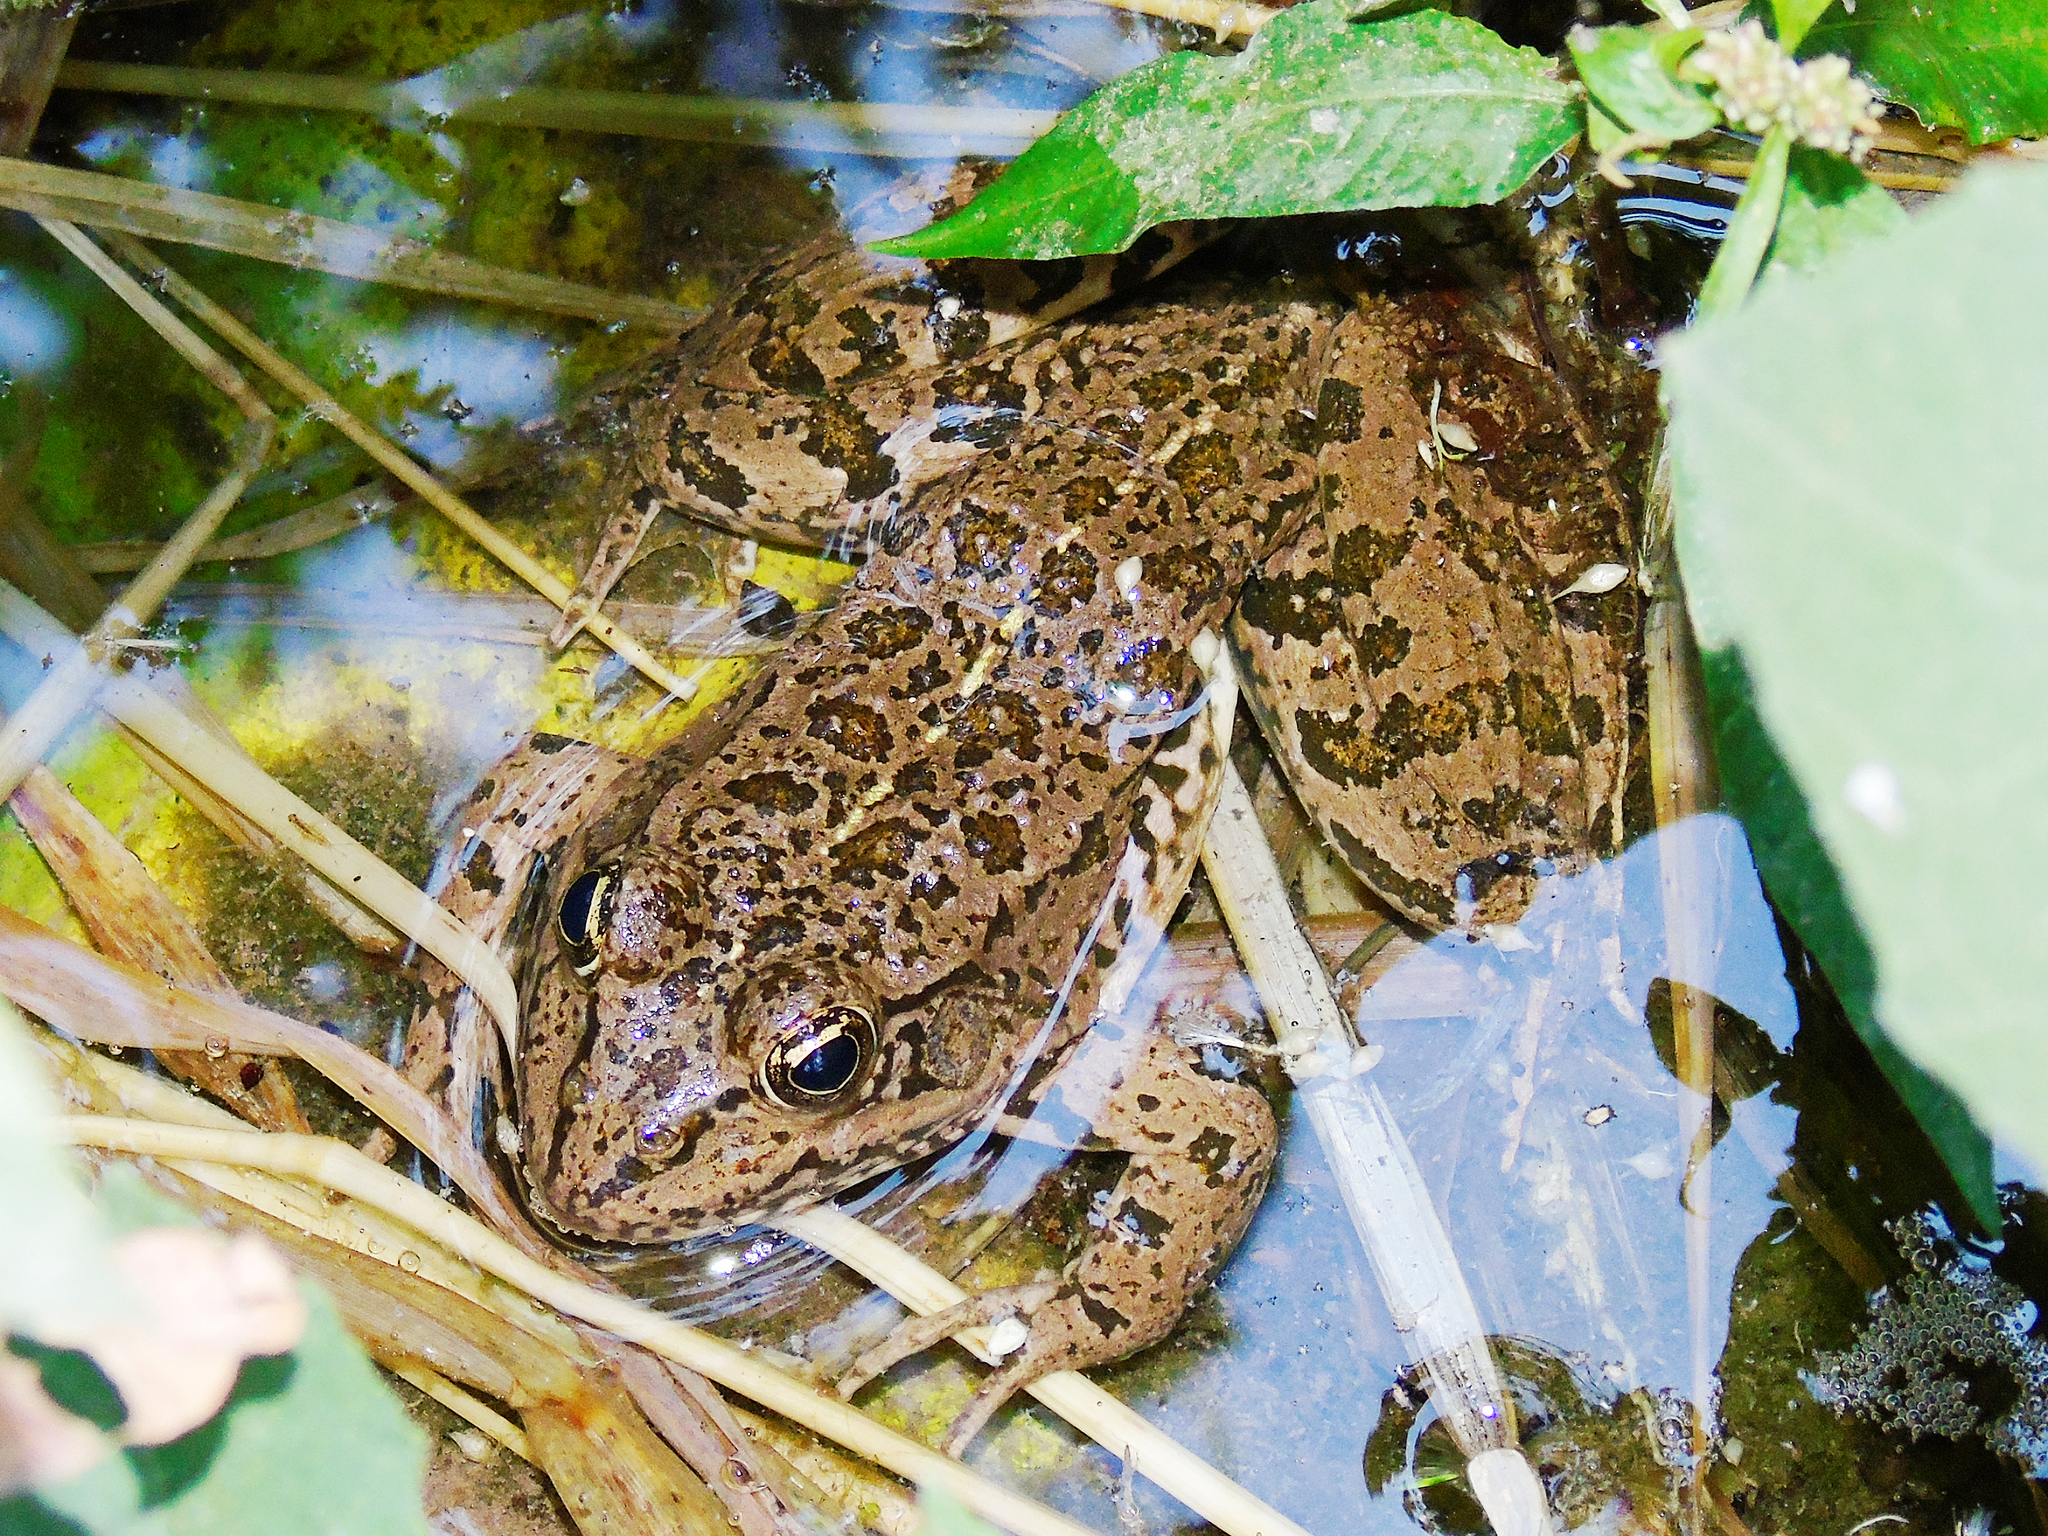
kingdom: Animalia
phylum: Chordata
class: Amphibia
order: Anura
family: Ranidae
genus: Pelophylax
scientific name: Pelophylax ridibundus
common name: Marsh frog
